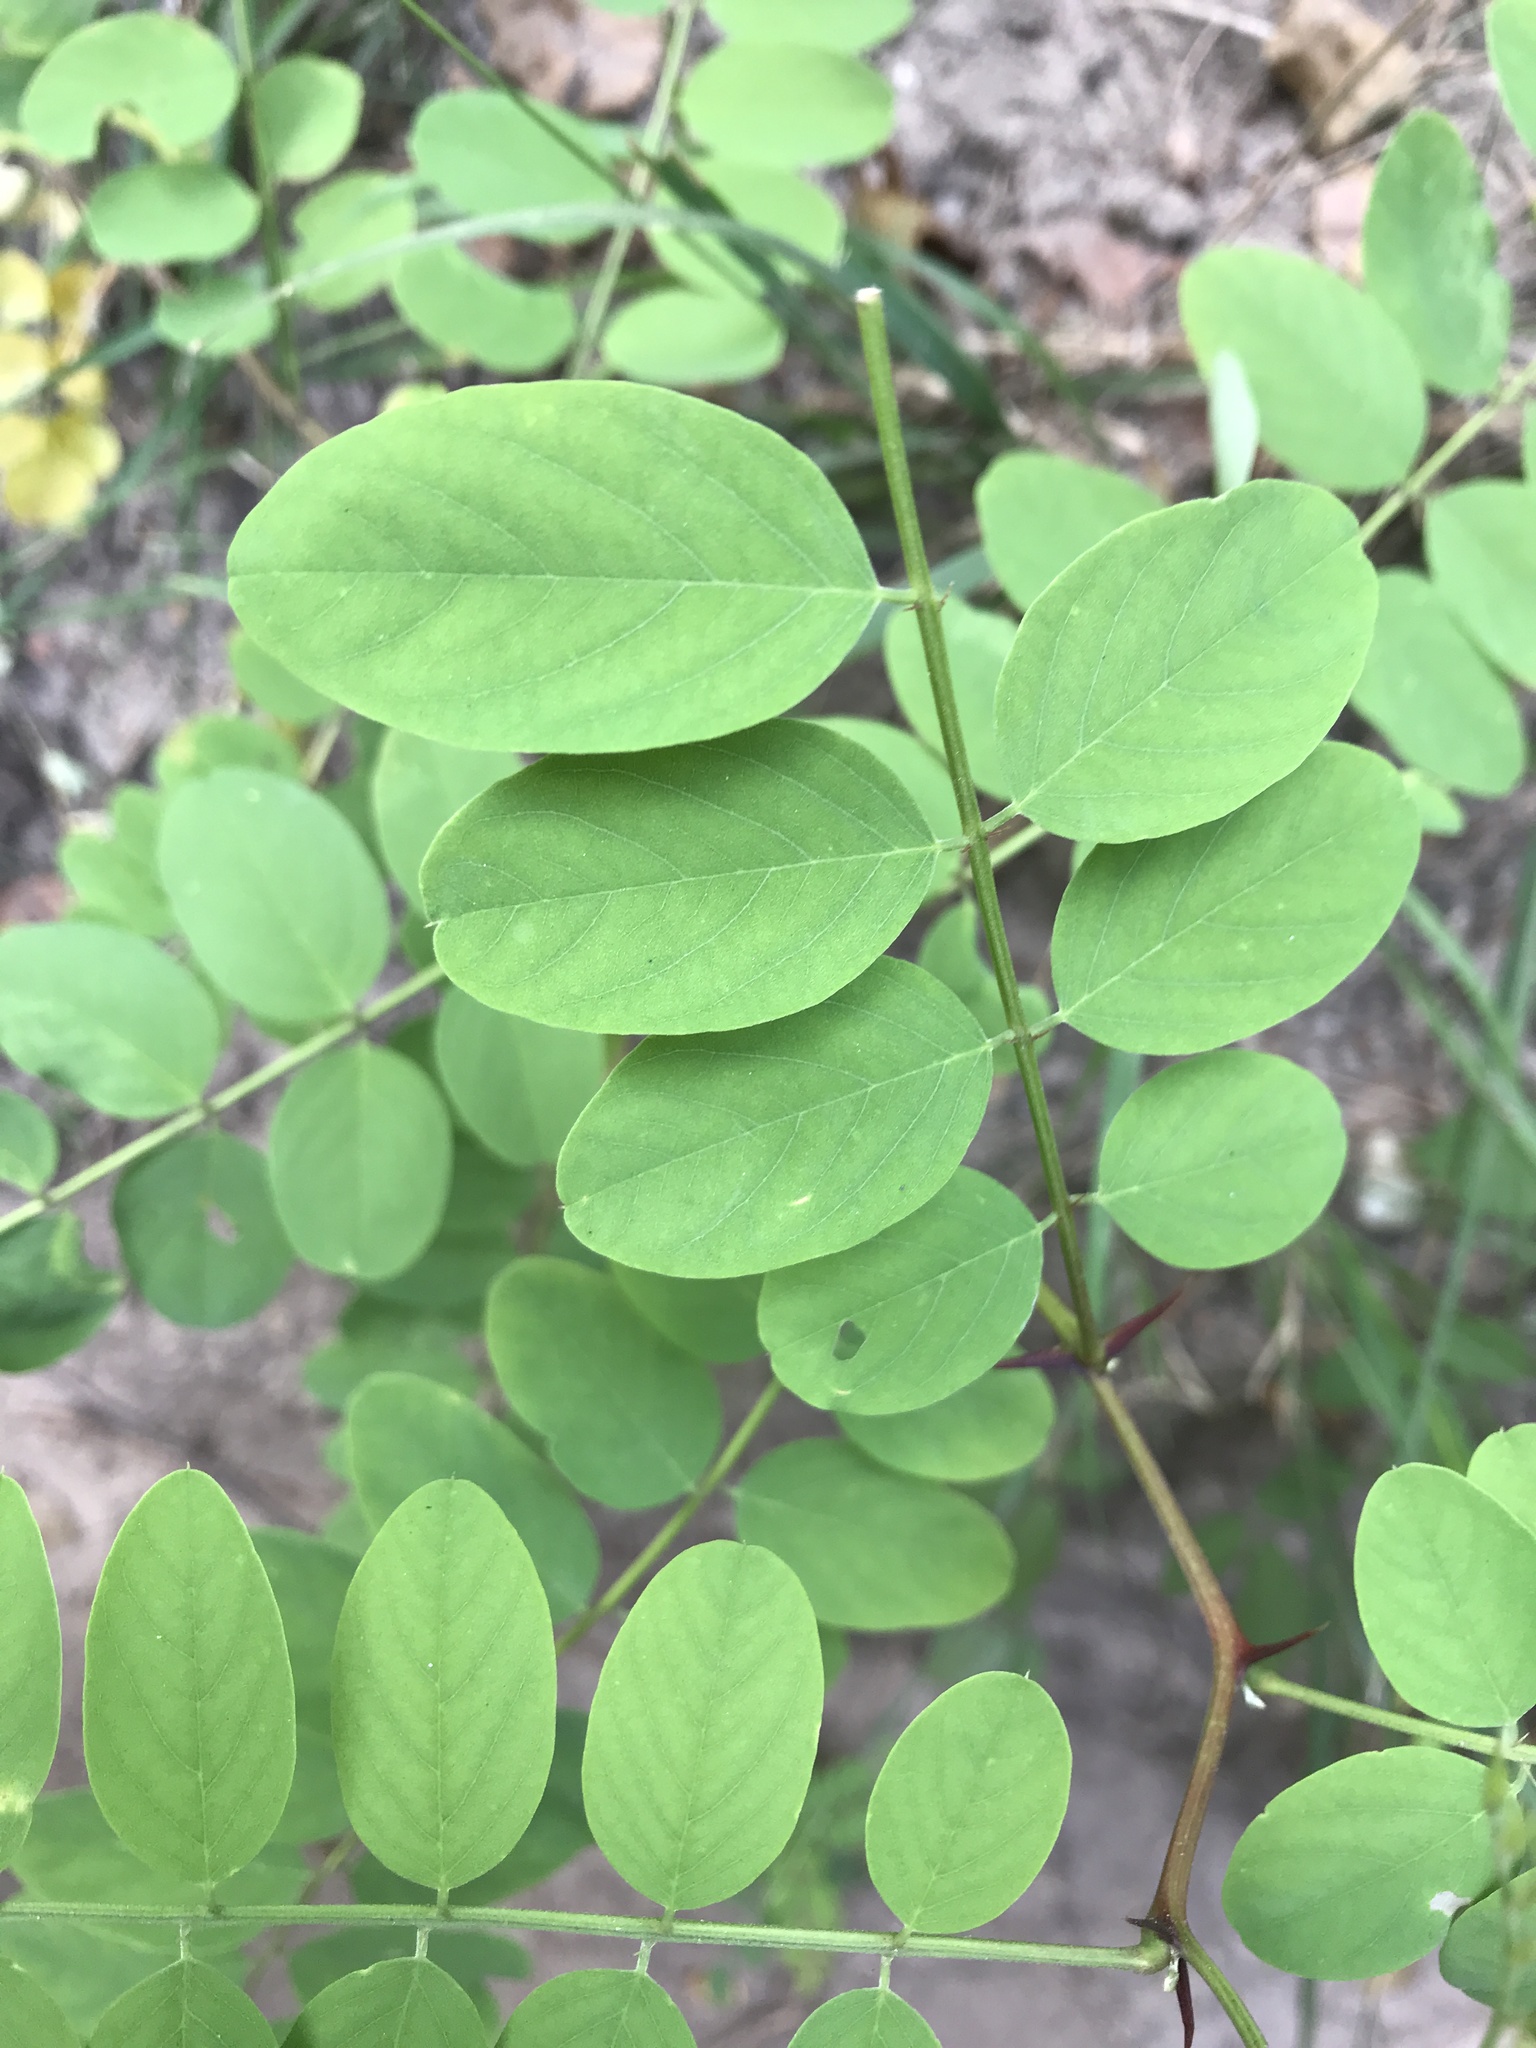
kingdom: Plantae
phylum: Tracheophyta
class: Magnoliopsida
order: Fabales
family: Fabaceae
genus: Robinia
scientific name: Robinia pseudoacacia
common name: Black locust
